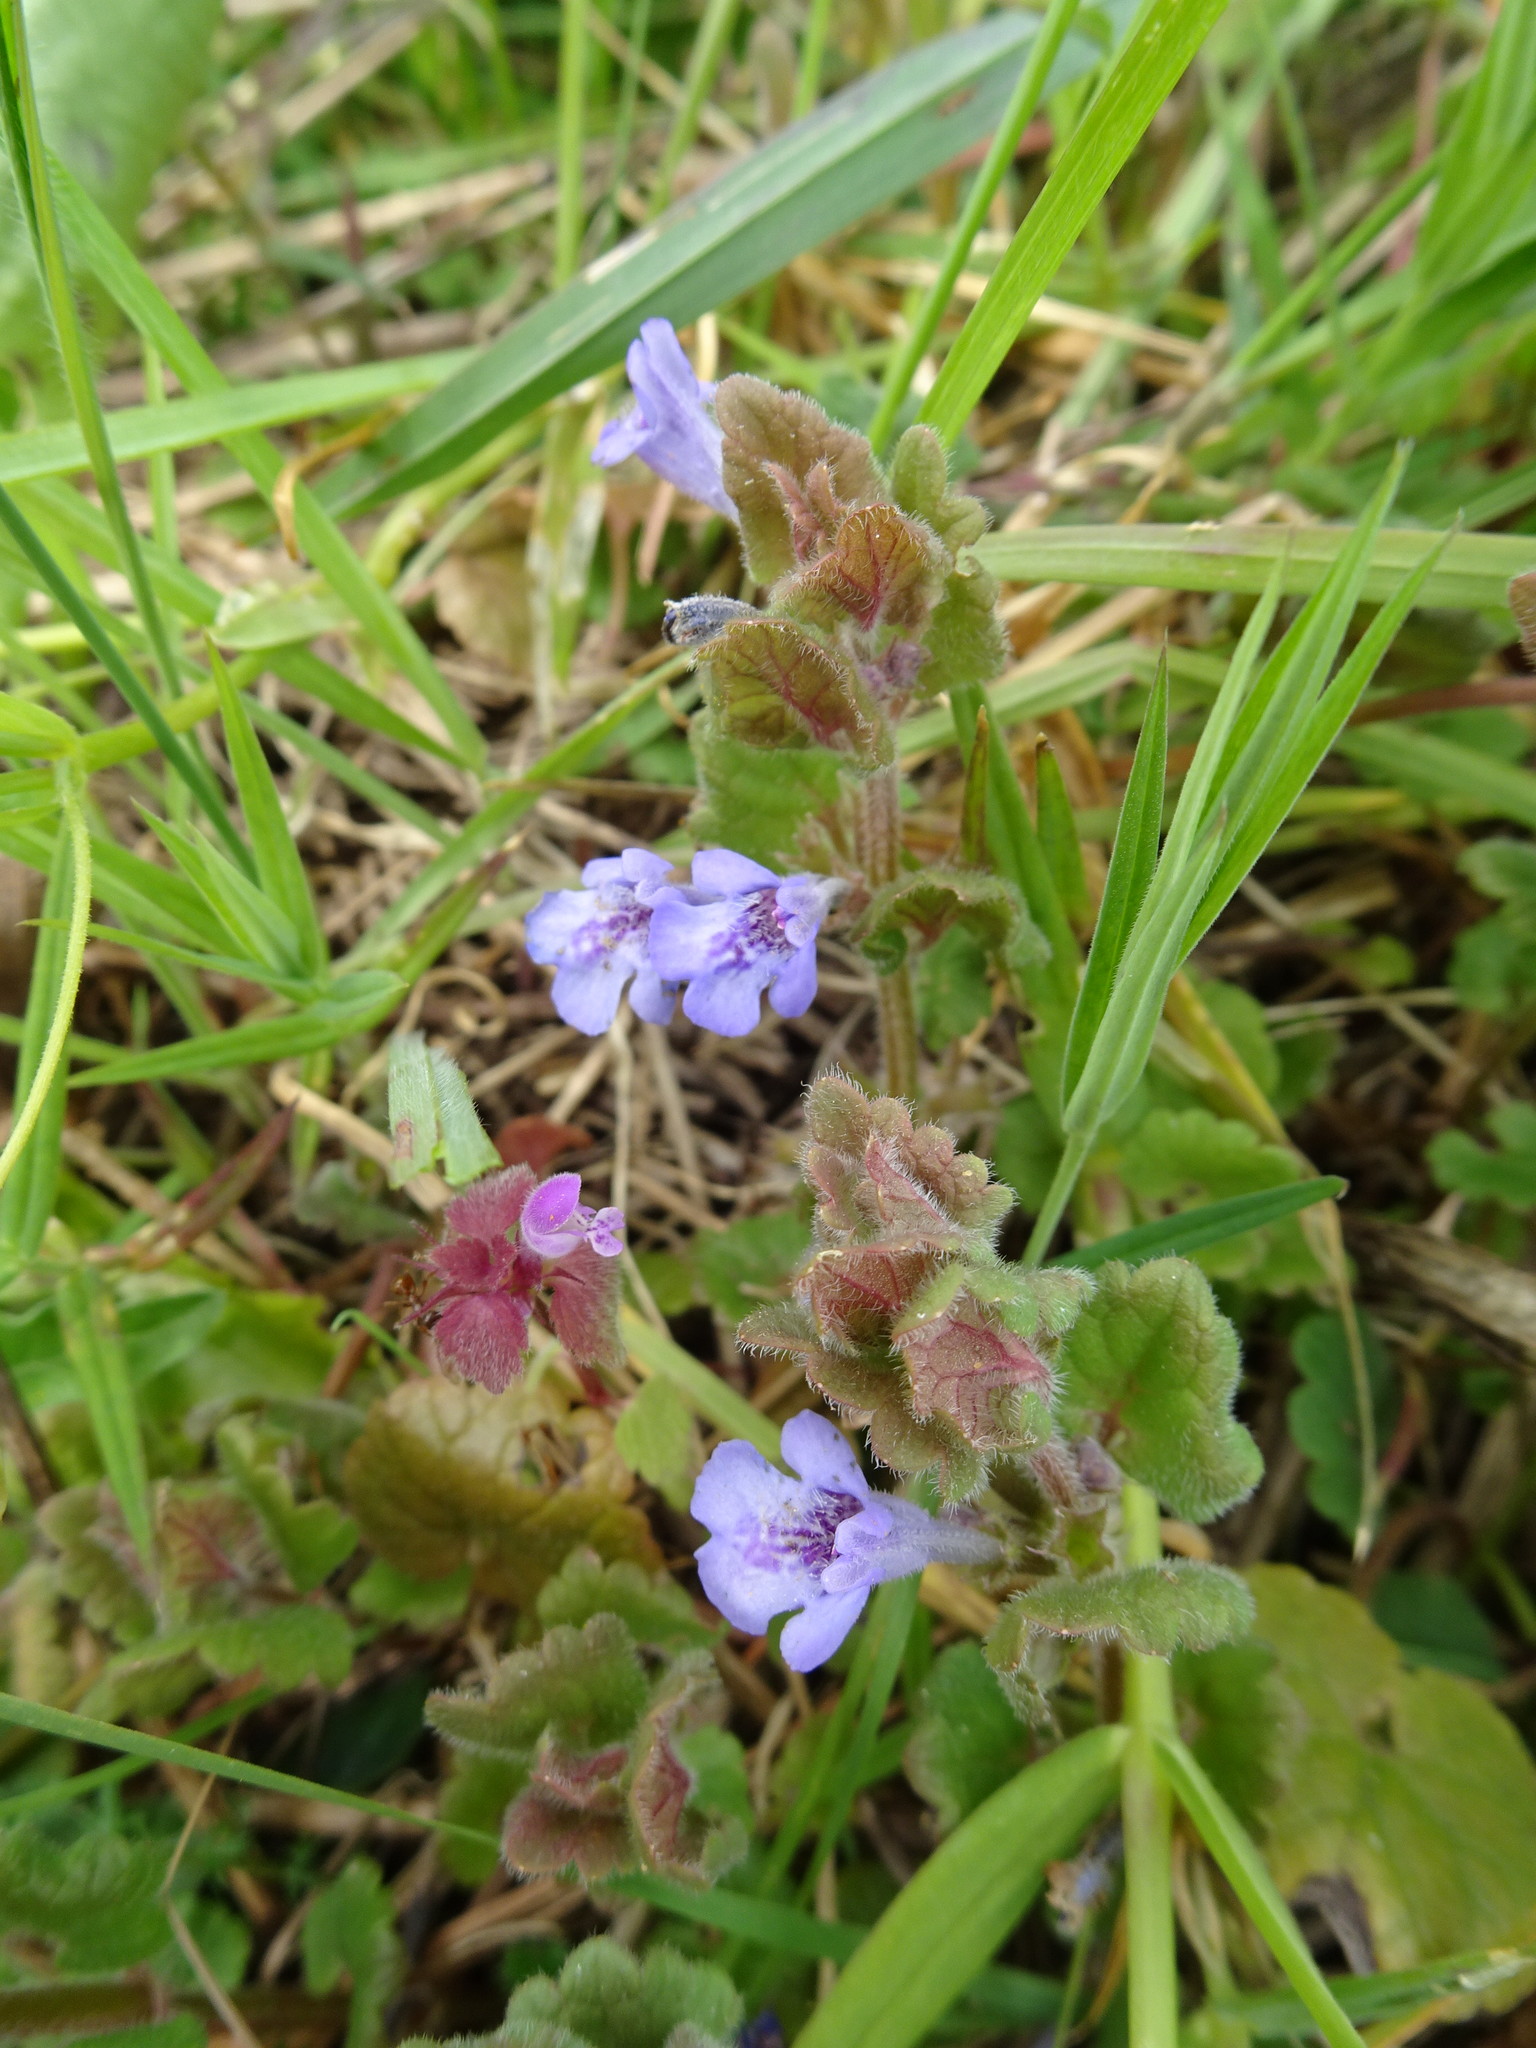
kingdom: Plantae
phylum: Tracheophyta
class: Magnoliopsida
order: Lamiales
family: Lamiaceae
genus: Glechoma
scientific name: Glechoma hederacea
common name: Ground ivy
